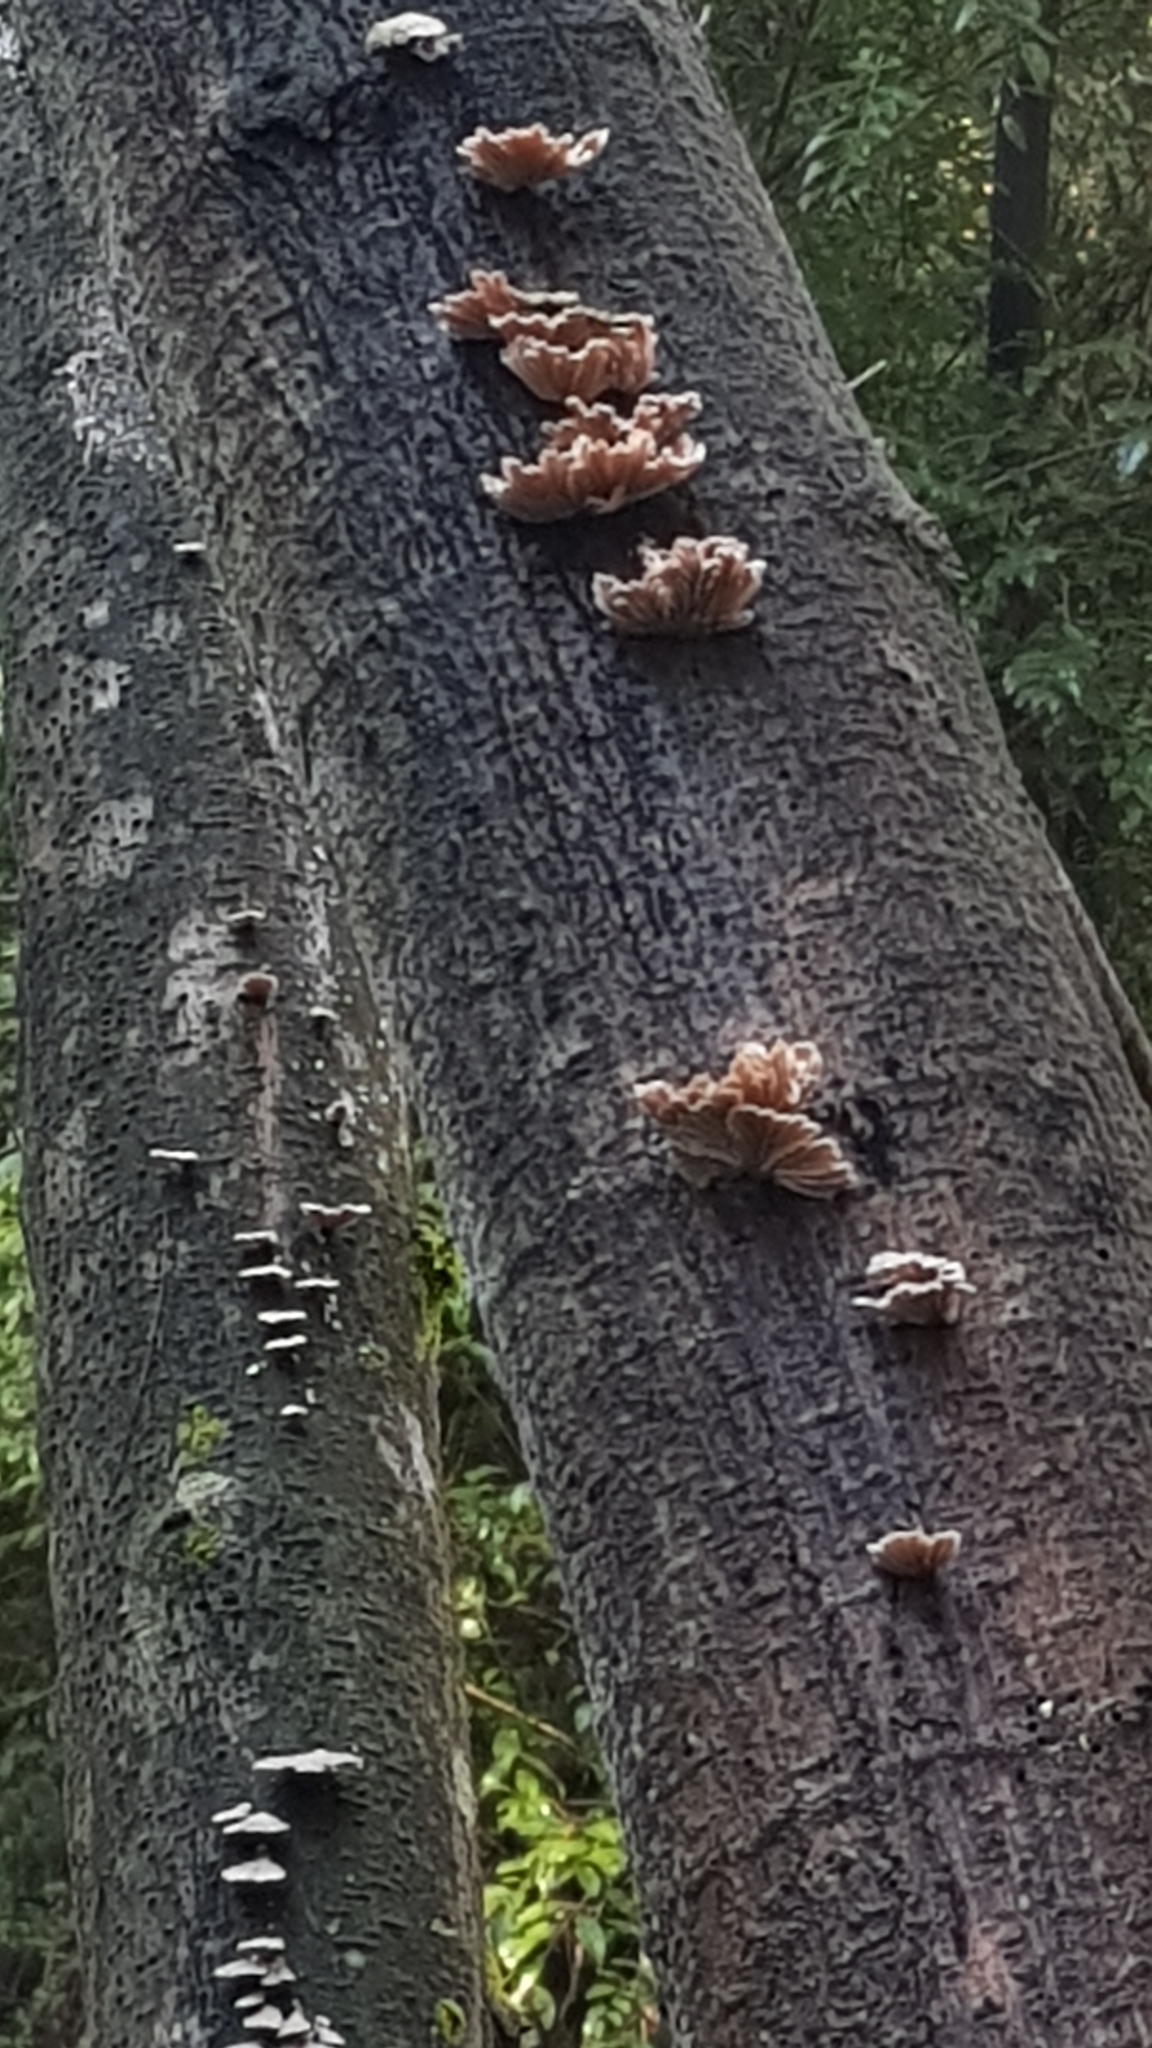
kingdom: Fungi
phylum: Basidiomycota
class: Agaricomycetes
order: Agaricales
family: Schizophyllaceae
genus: Schizophyllum
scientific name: Schizophyllum commune
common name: Common porecrust
